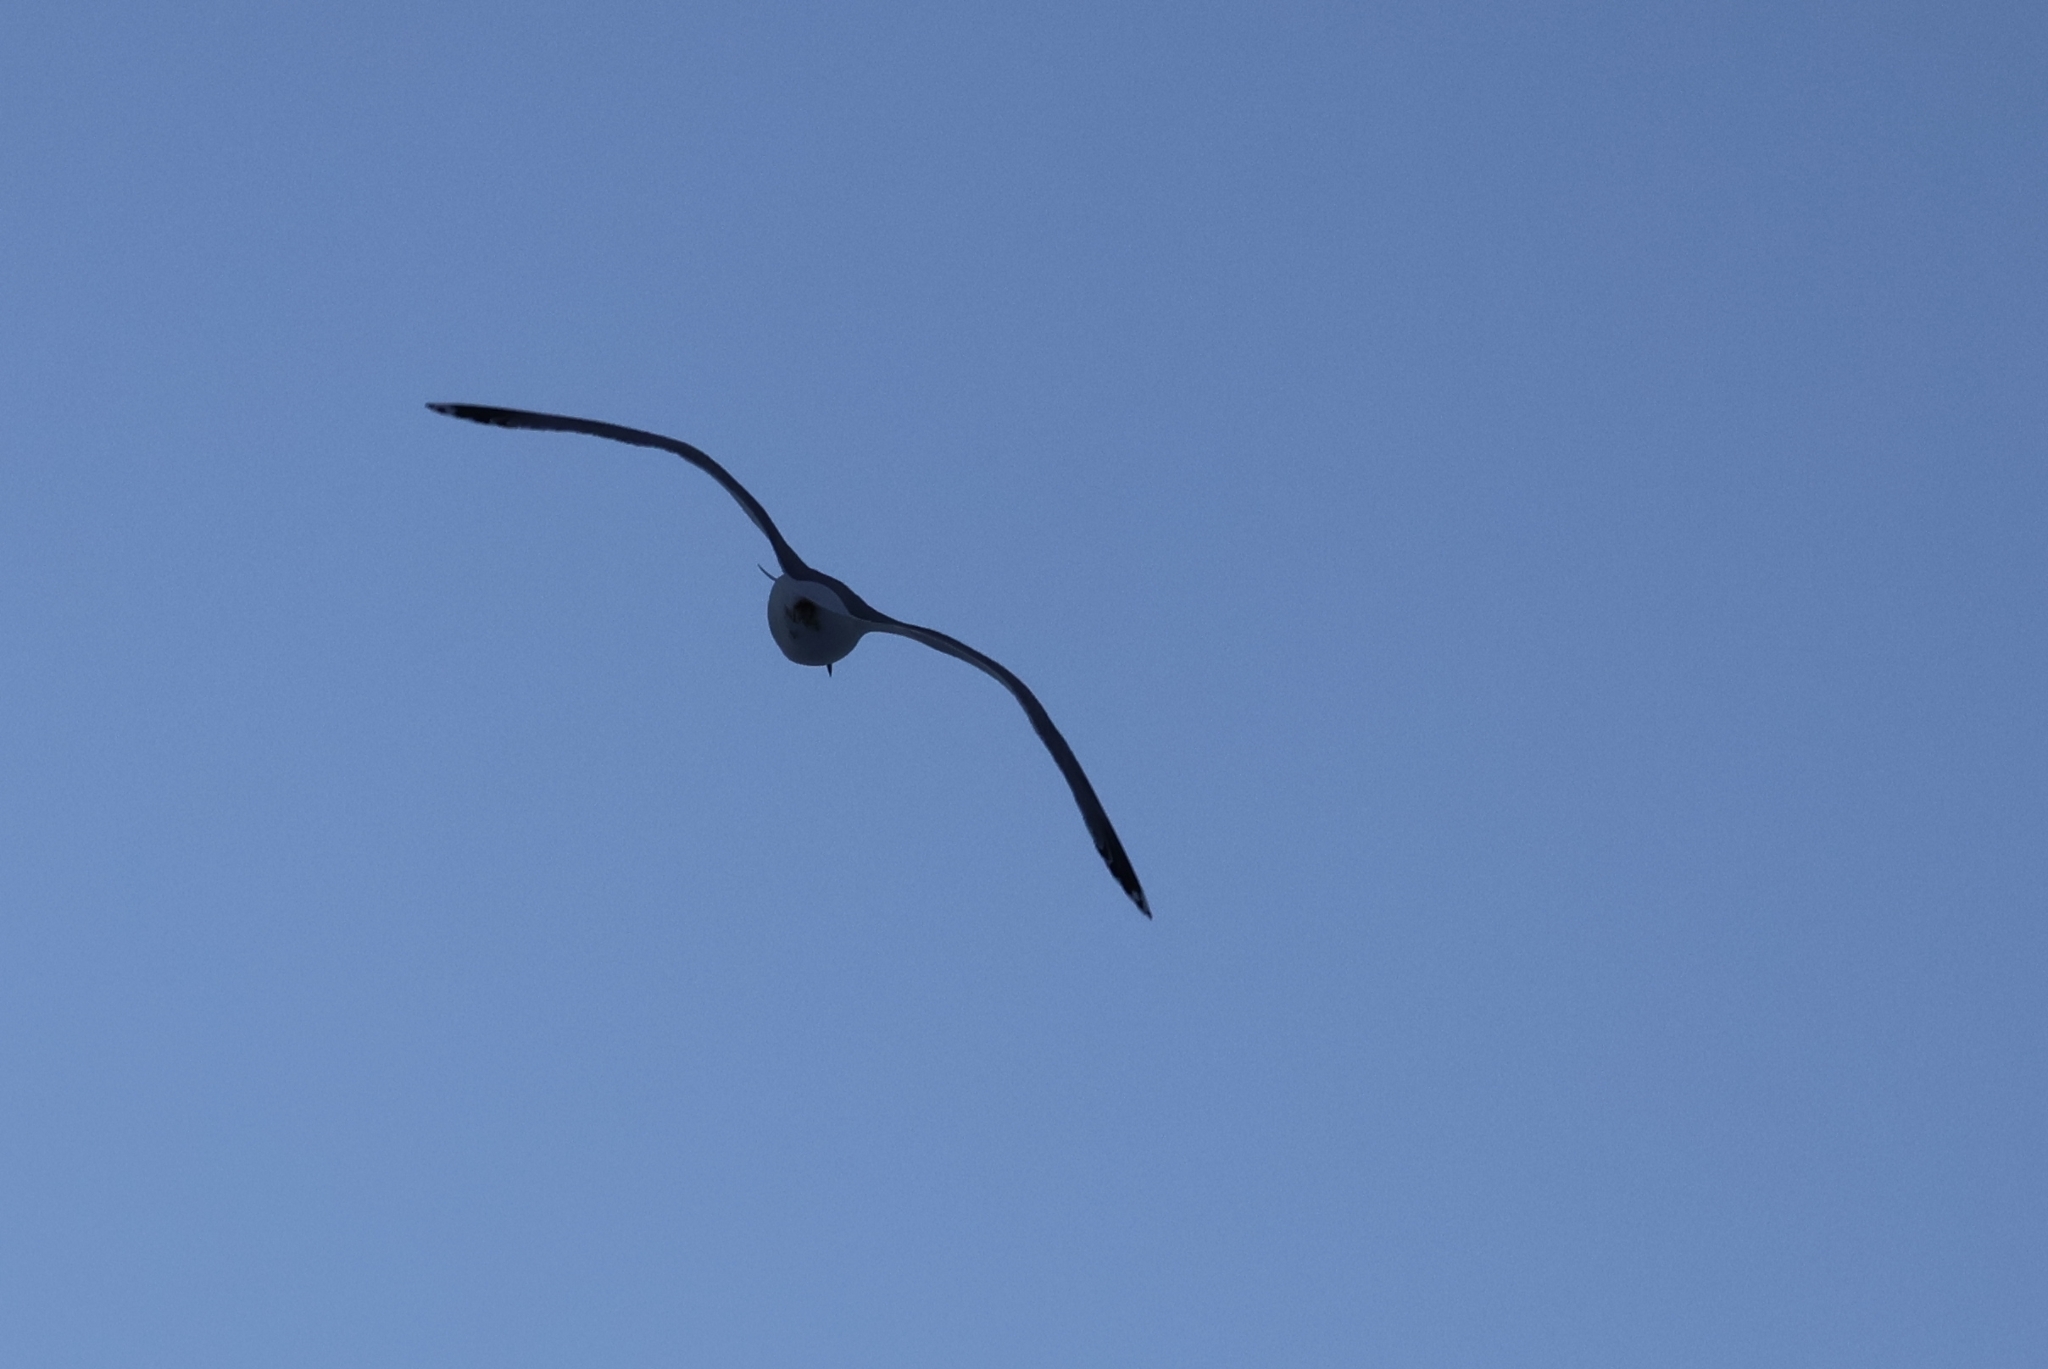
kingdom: Animalia
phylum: Chordata
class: Aves
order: Charadriiformes
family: Laridae
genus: Larus
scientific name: Larus argentatus
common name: Herring gull
